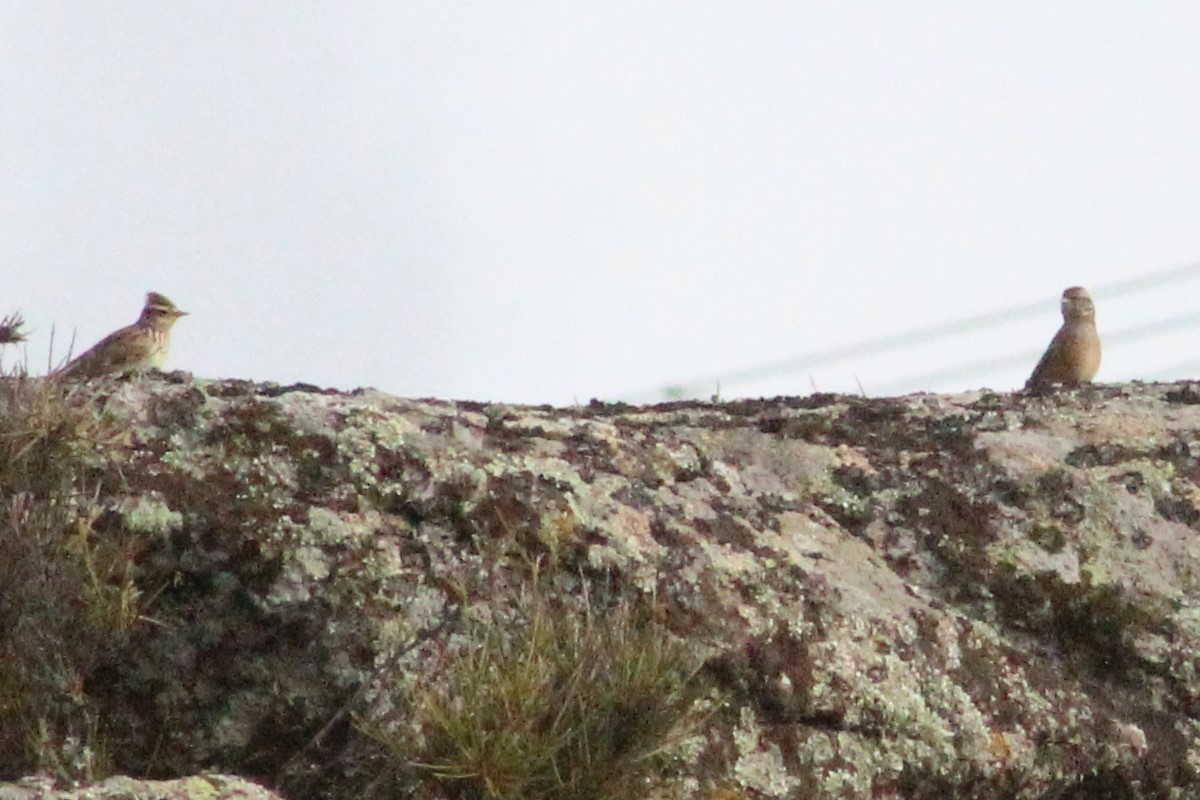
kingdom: Animalia
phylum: Chordata
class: Aves
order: Passeriformes
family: Alaudidae
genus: Lullula
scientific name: Lullula arborea
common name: Woodlark
